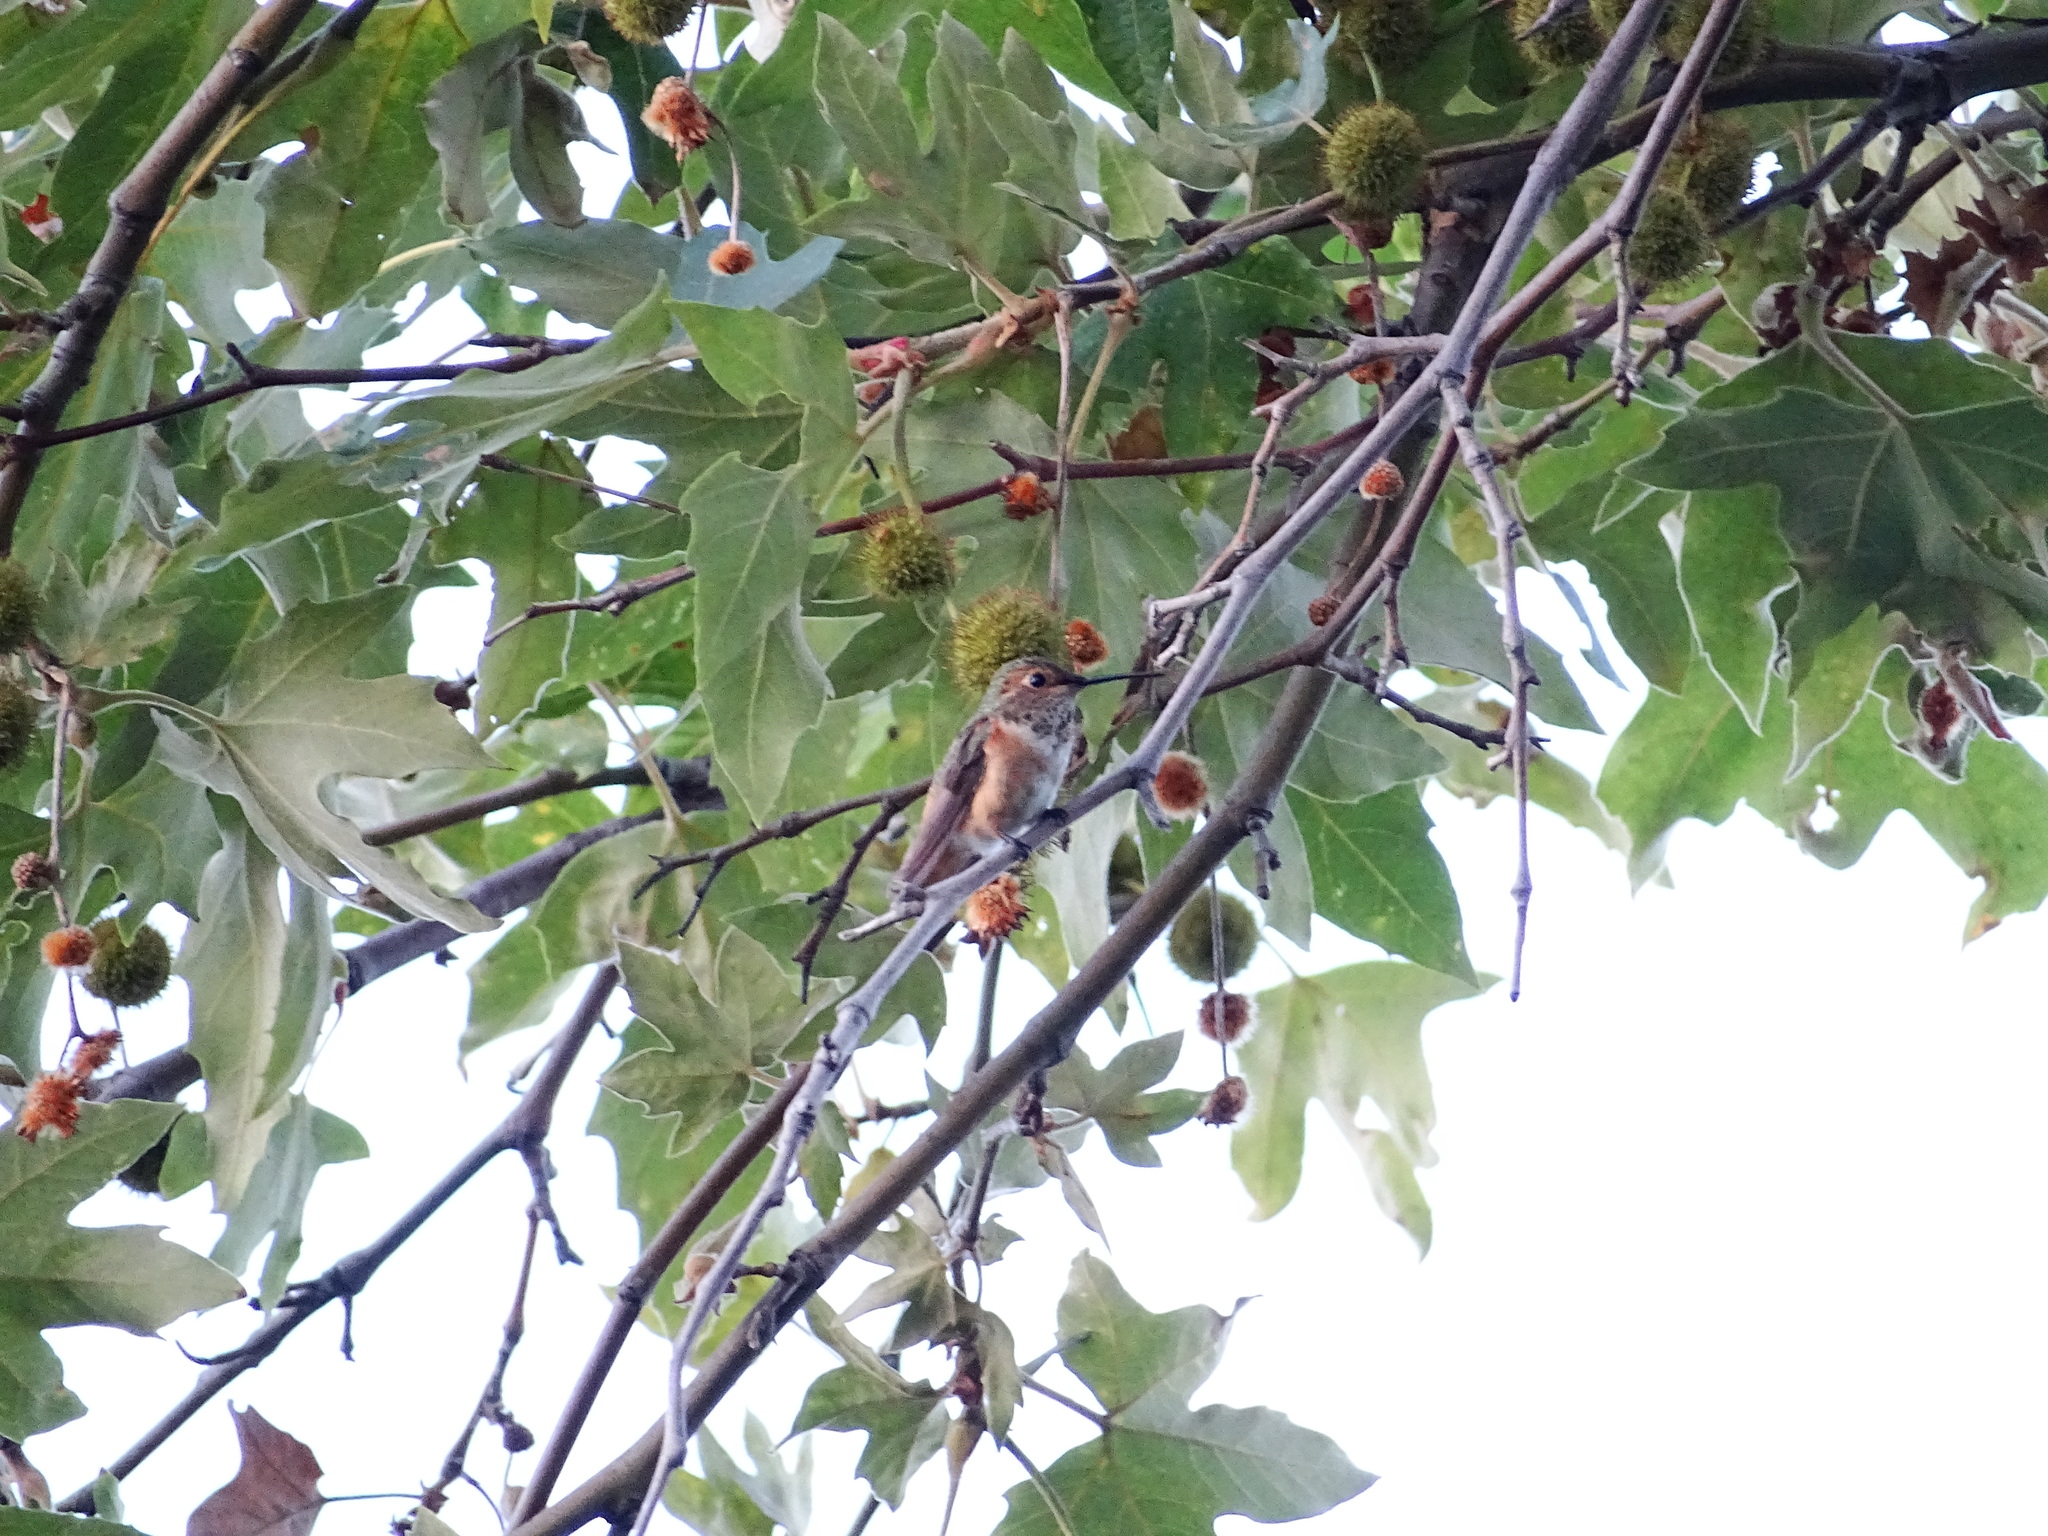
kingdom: Animalia
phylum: Chordata
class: Aves
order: Apodiformes
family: Trochilidae
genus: Selasphorus
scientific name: Selasphorus sasin
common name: Allen's hummingbird
